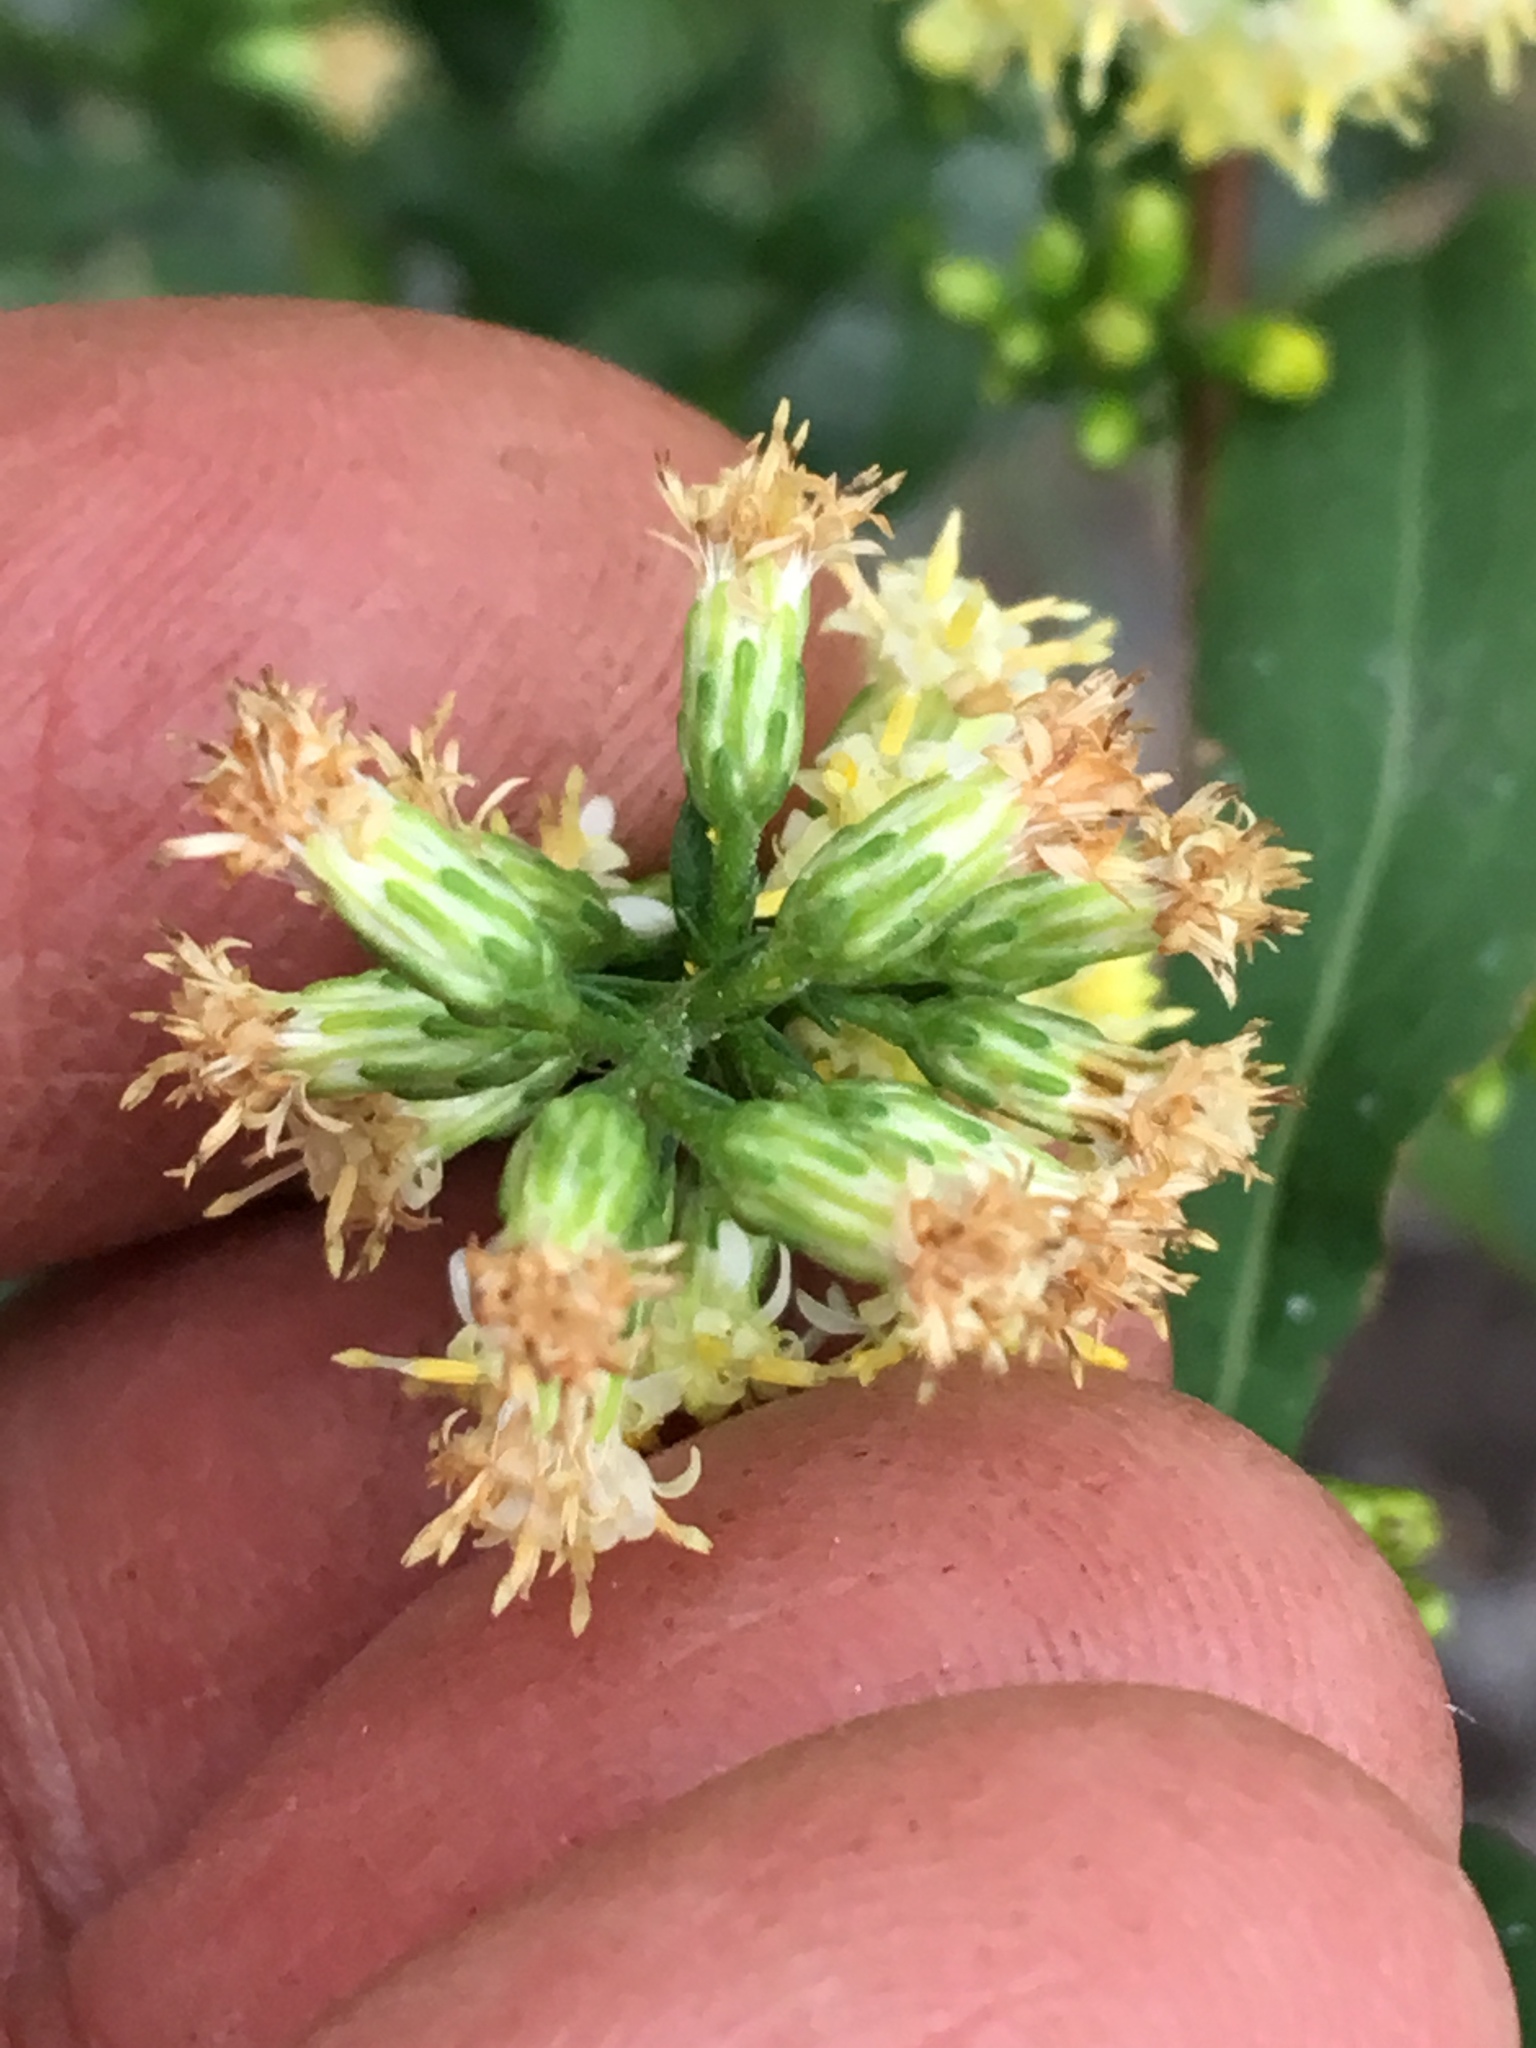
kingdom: Plantae
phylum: Tracheophyta
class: Magnoliopsida
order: Asterales
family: Asteraceae
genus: Solidago
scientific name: Solidago bicolor
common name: Silverrod
